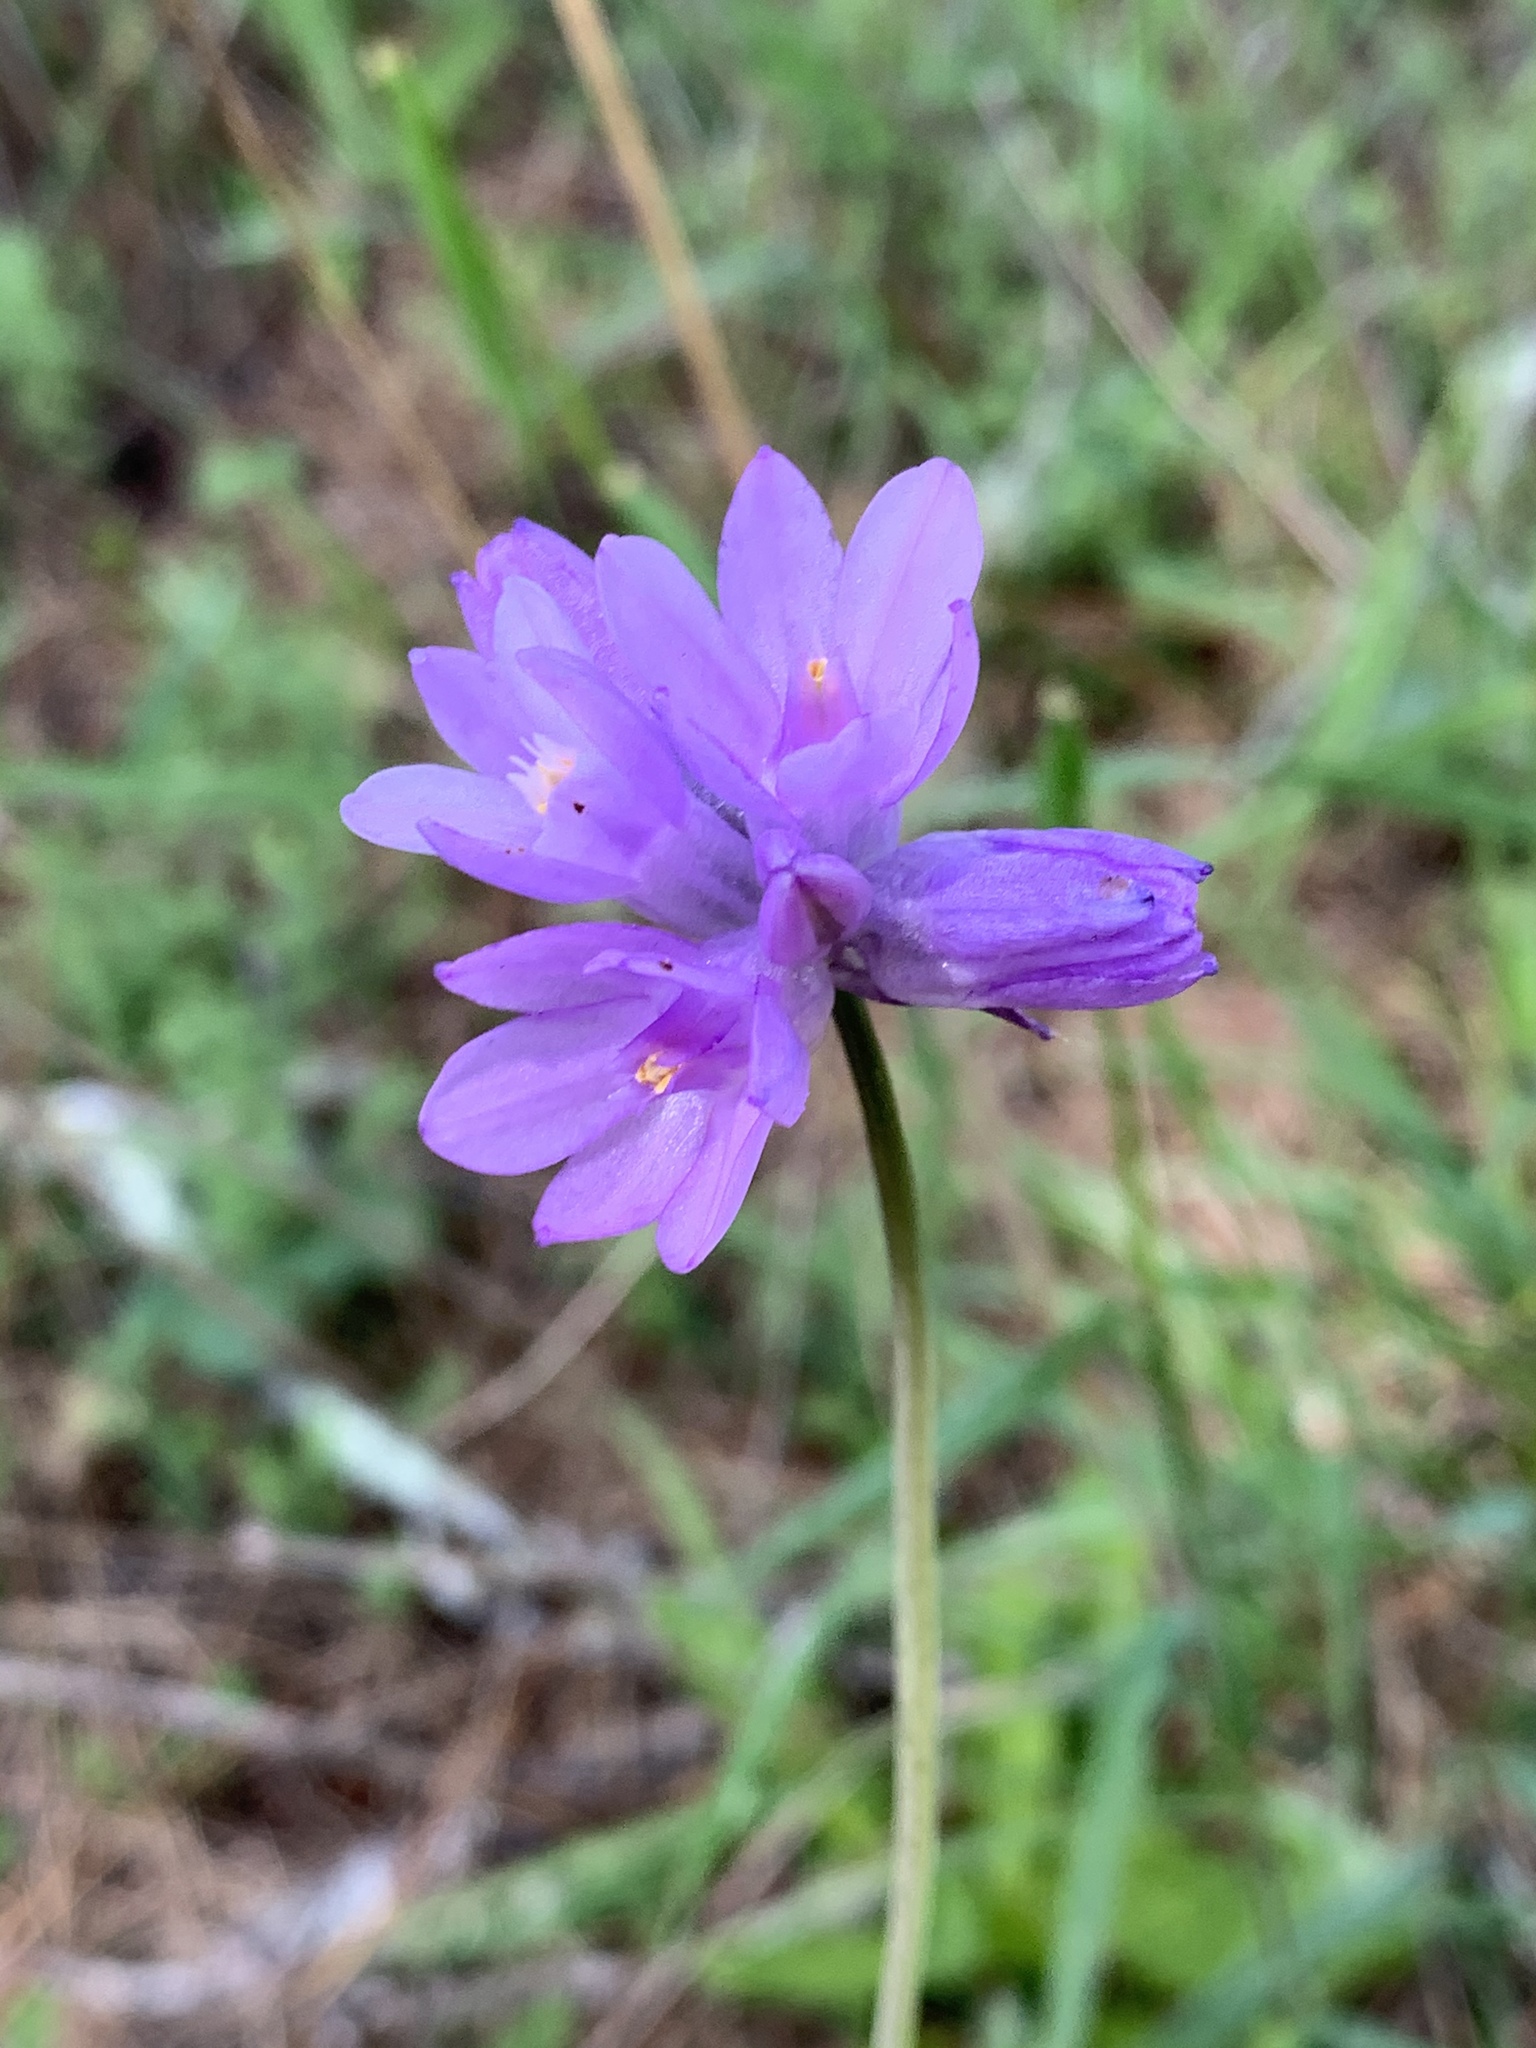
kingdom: Plantae
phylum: Tracheophyta
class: Liliopsida
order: Asparagales
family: Asparagaceae
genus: Dipterostemon
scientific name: Dipterostemon capitatus
